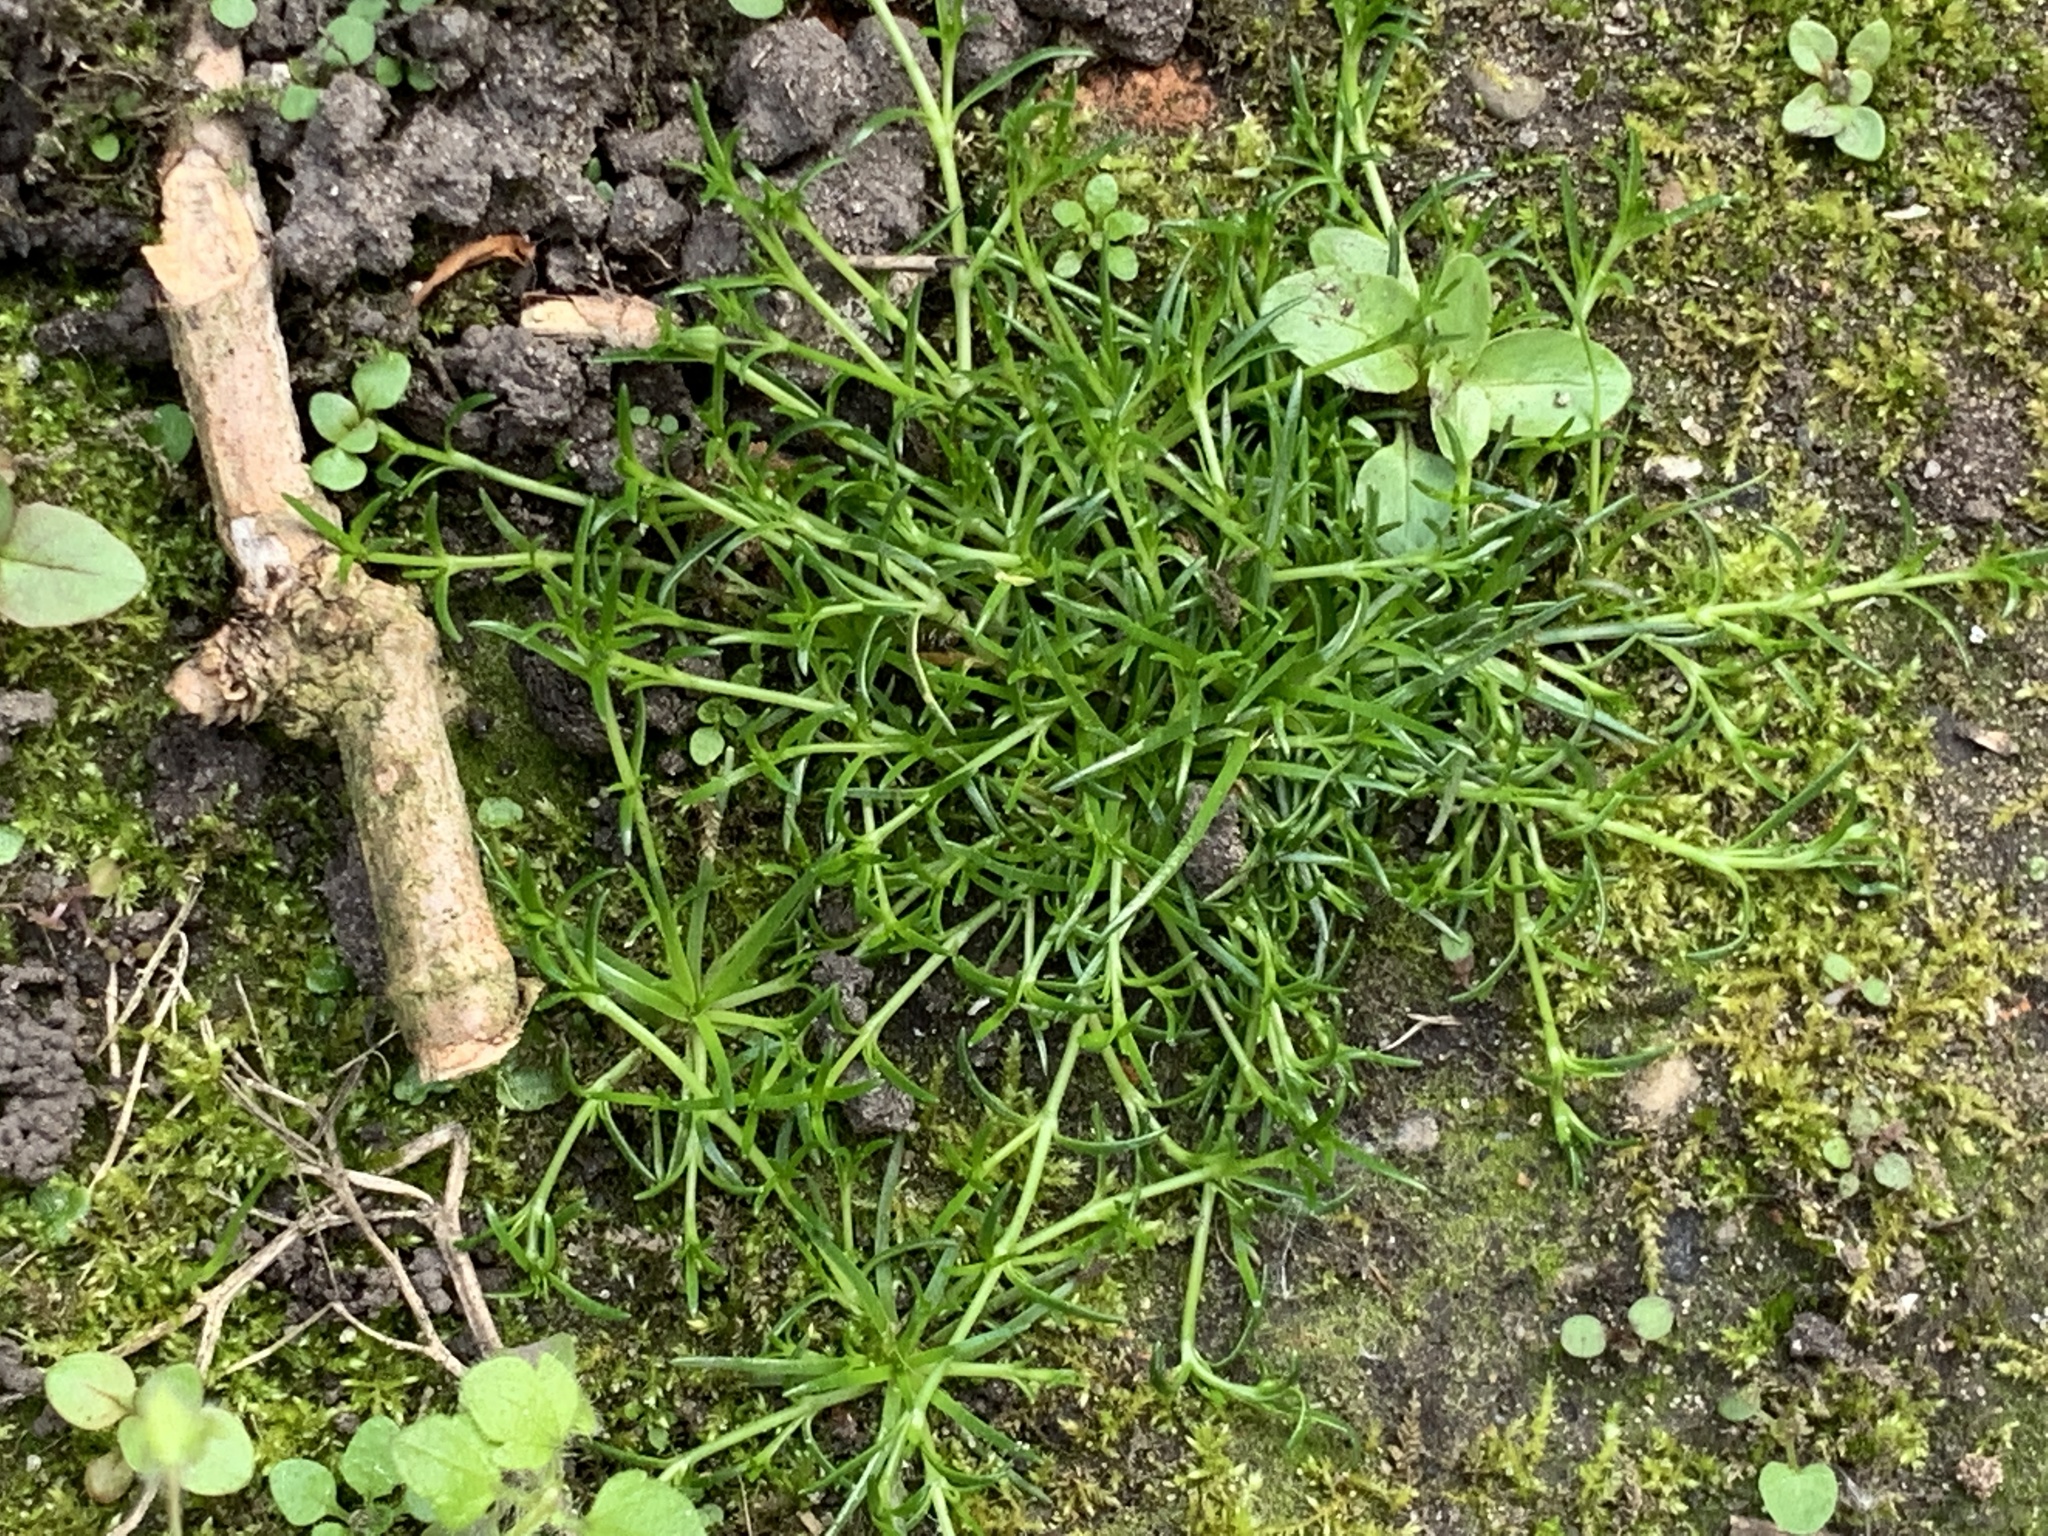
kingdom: Plantae
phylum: Tracheophyta
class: Magnoliopsida
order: Caryophyllales
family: Caryophyllaceae
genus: Sagina
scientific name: Sagina procumbens
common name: Procumbent pearlwort
